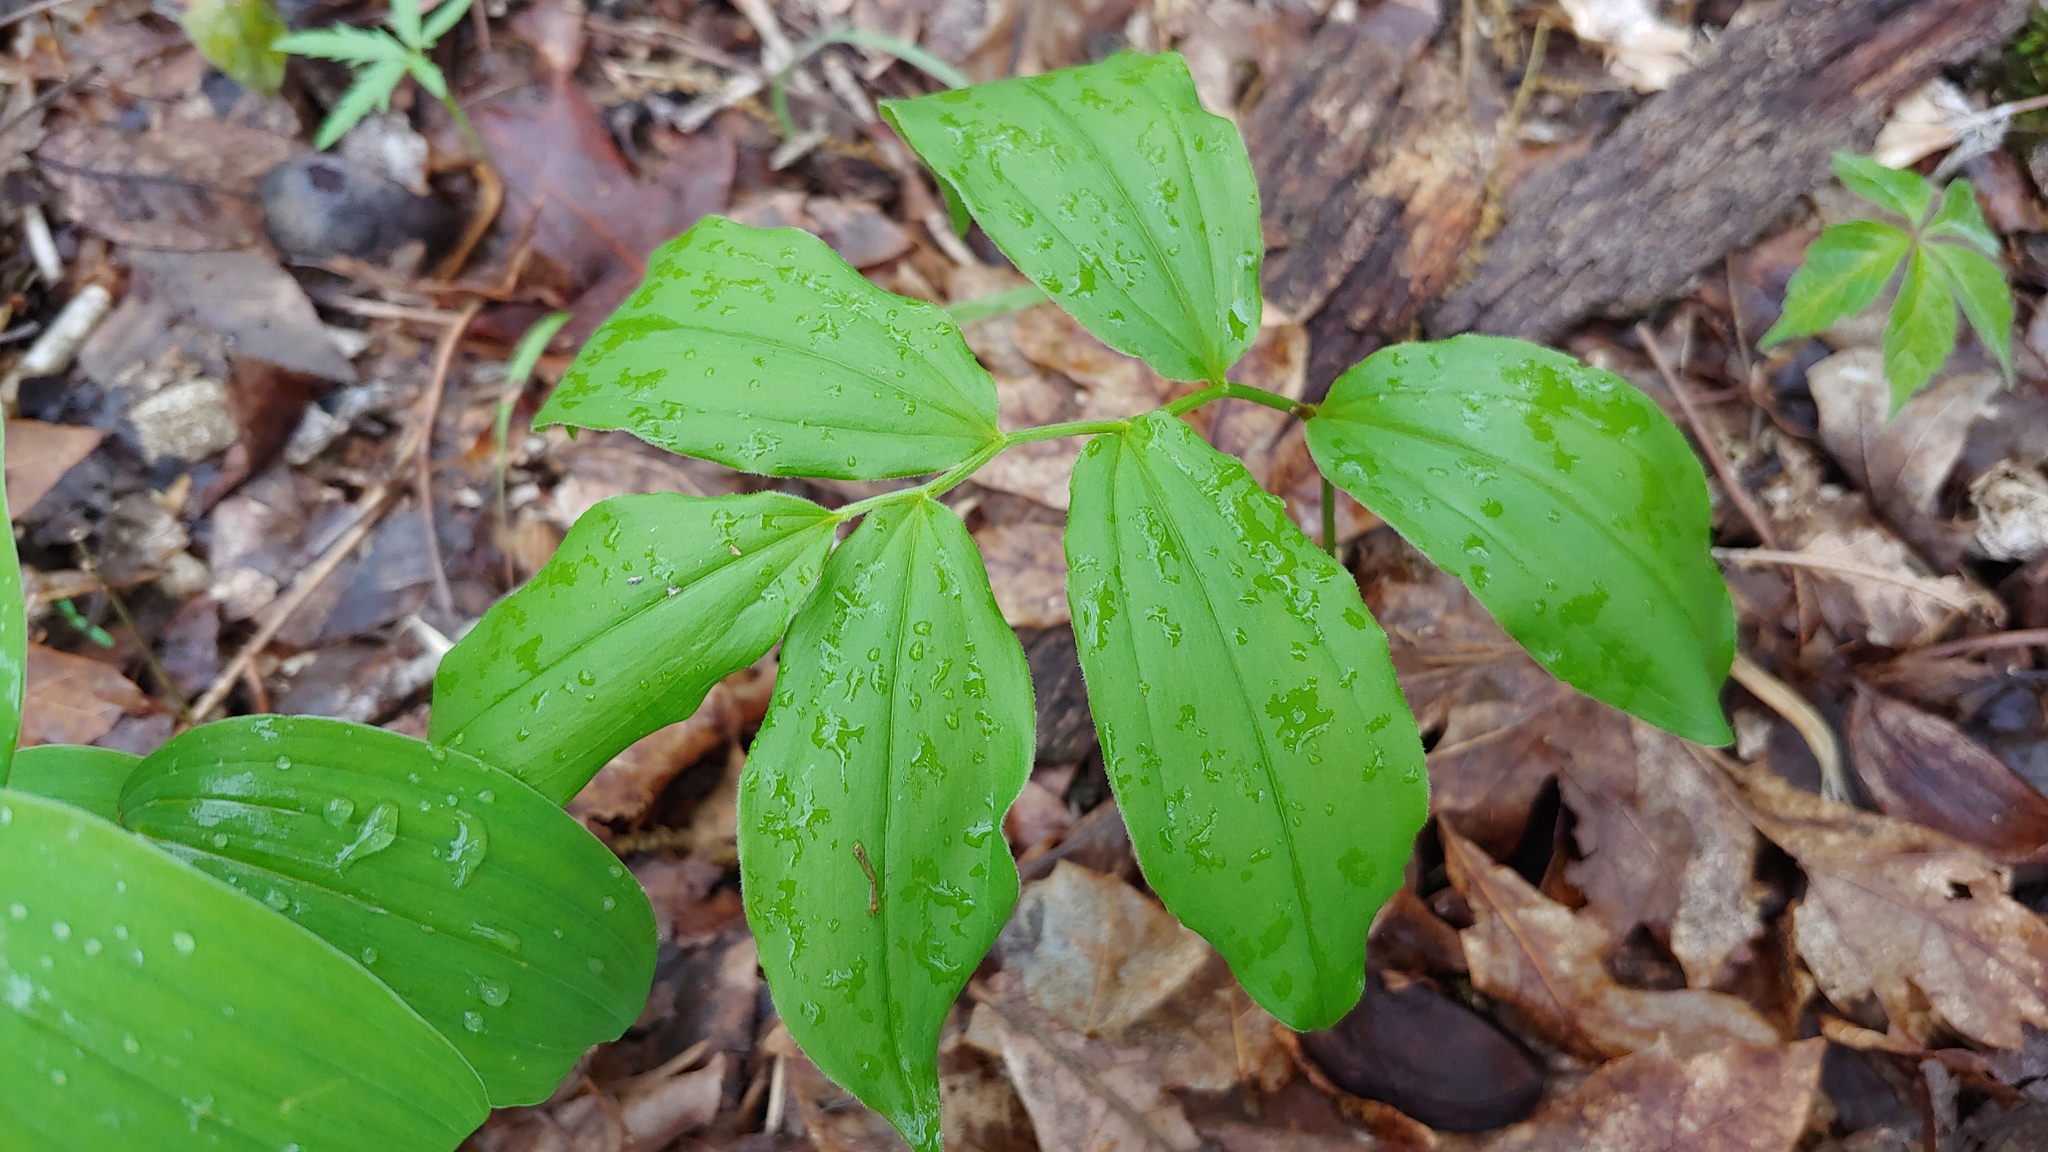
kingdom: Plantae
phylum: Tracheophyta
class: Liliopsida
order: Asparagales
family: Asparagaceae
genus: Maianthemum
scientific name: Maianthemum racemosum
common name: False spikenard
